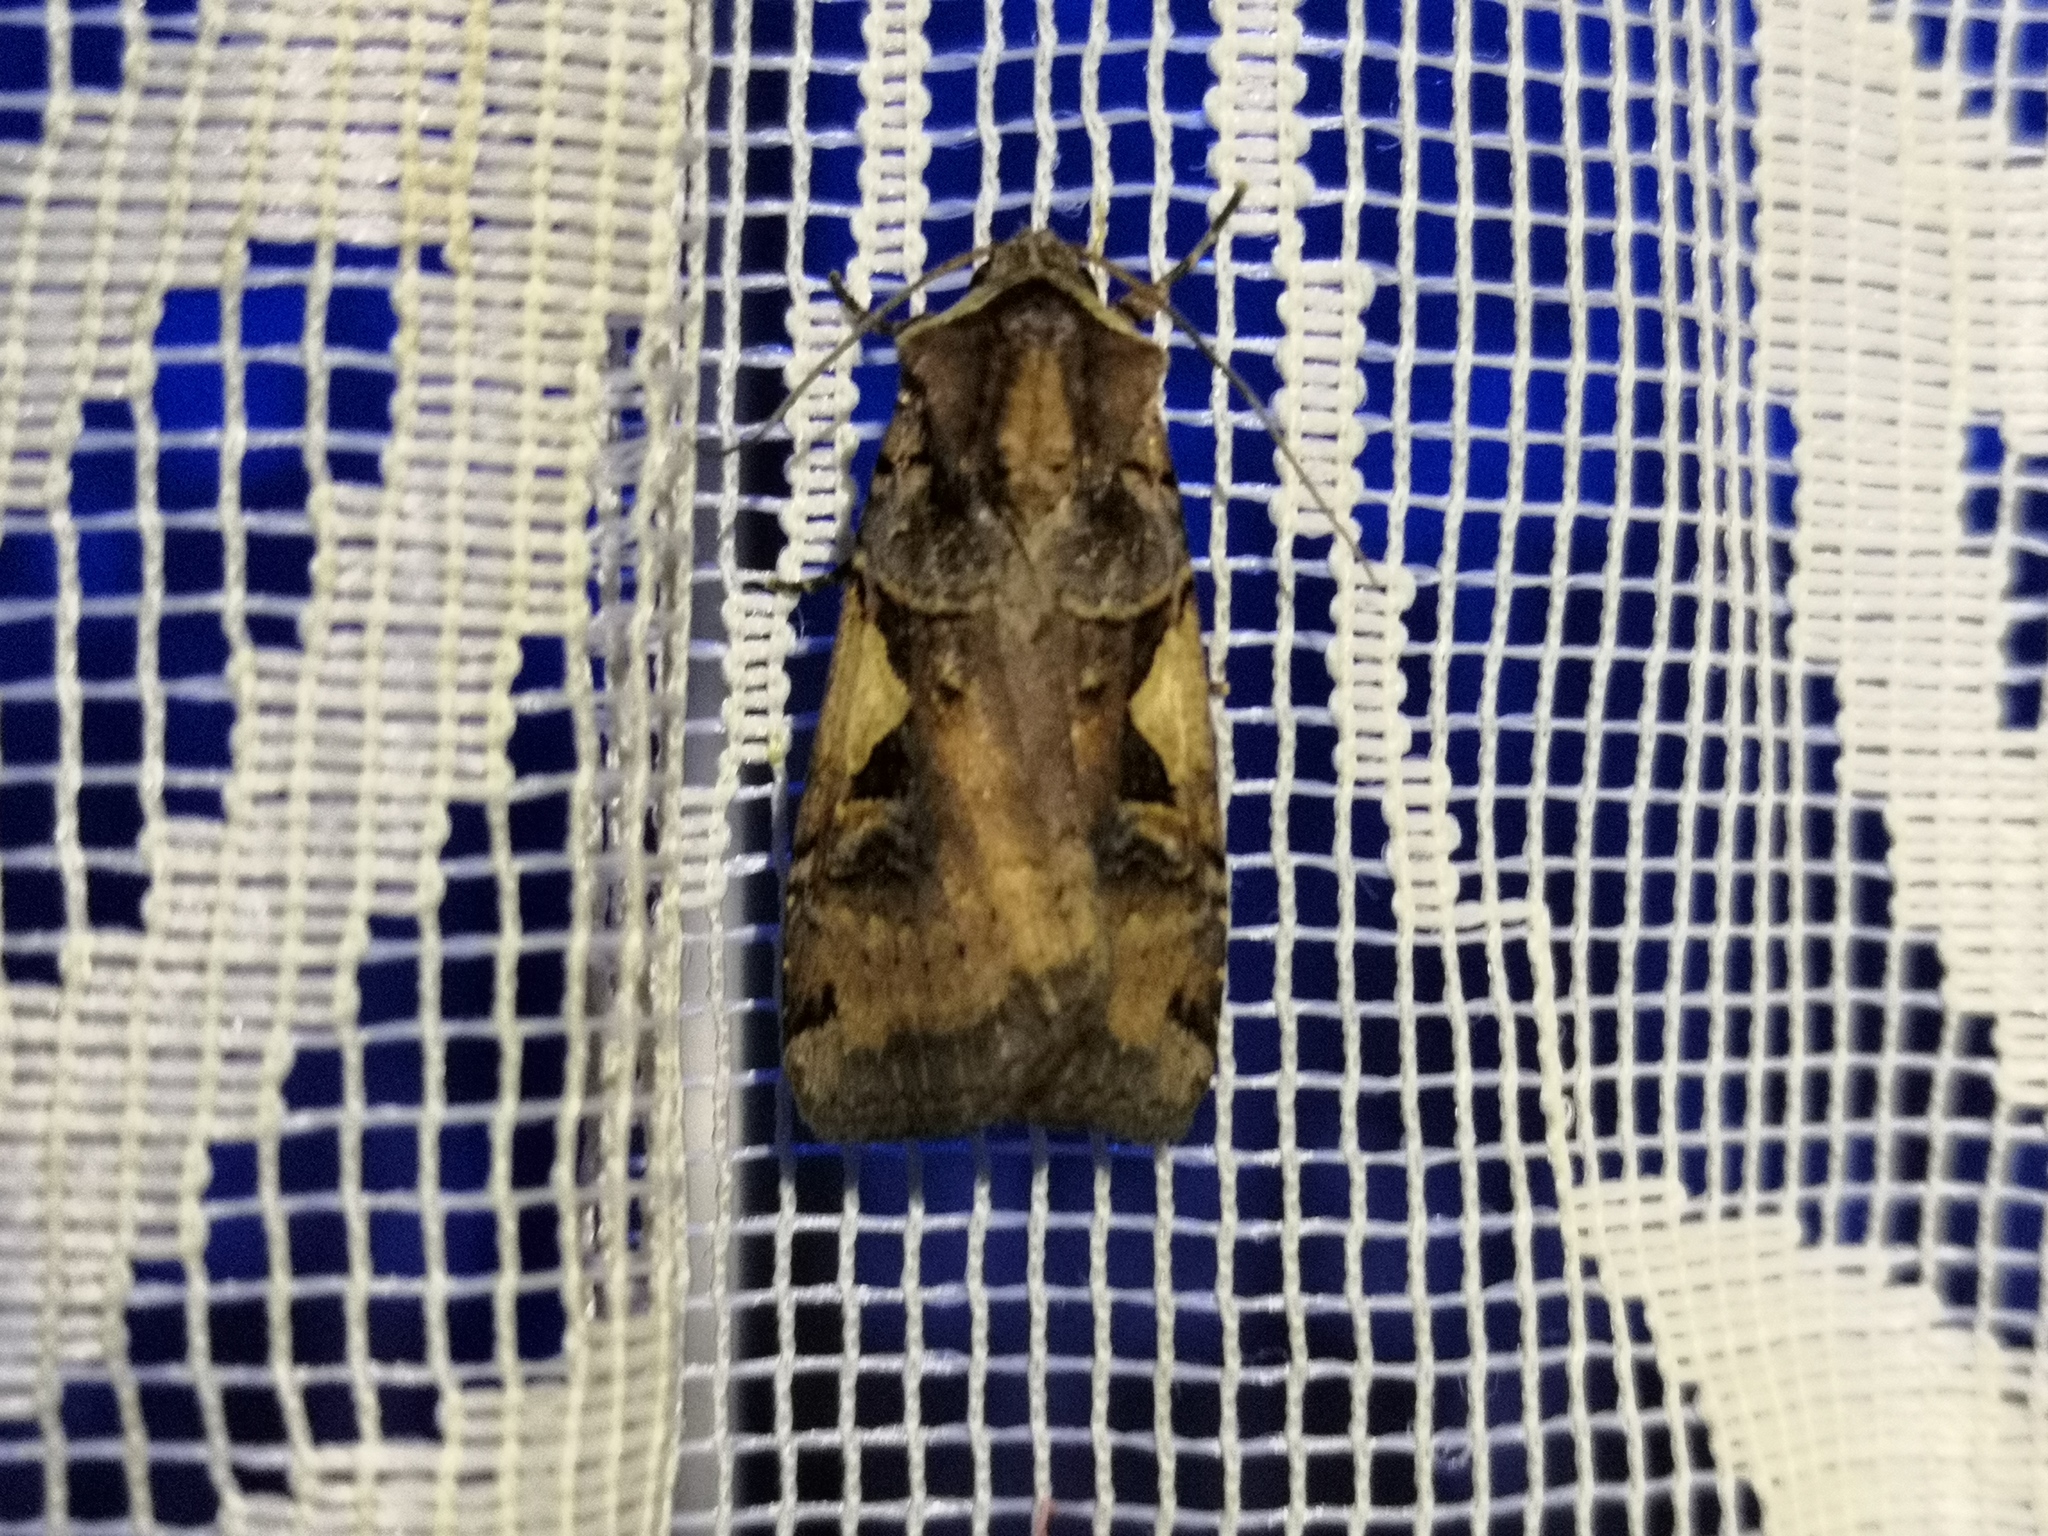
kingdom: Animalia
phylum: Arthropoda
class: Insecta
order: Lepidoptera
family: Noctuidae
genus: Xestia
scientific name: Xestia c-nigrum
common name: Setaceous hebrew character
